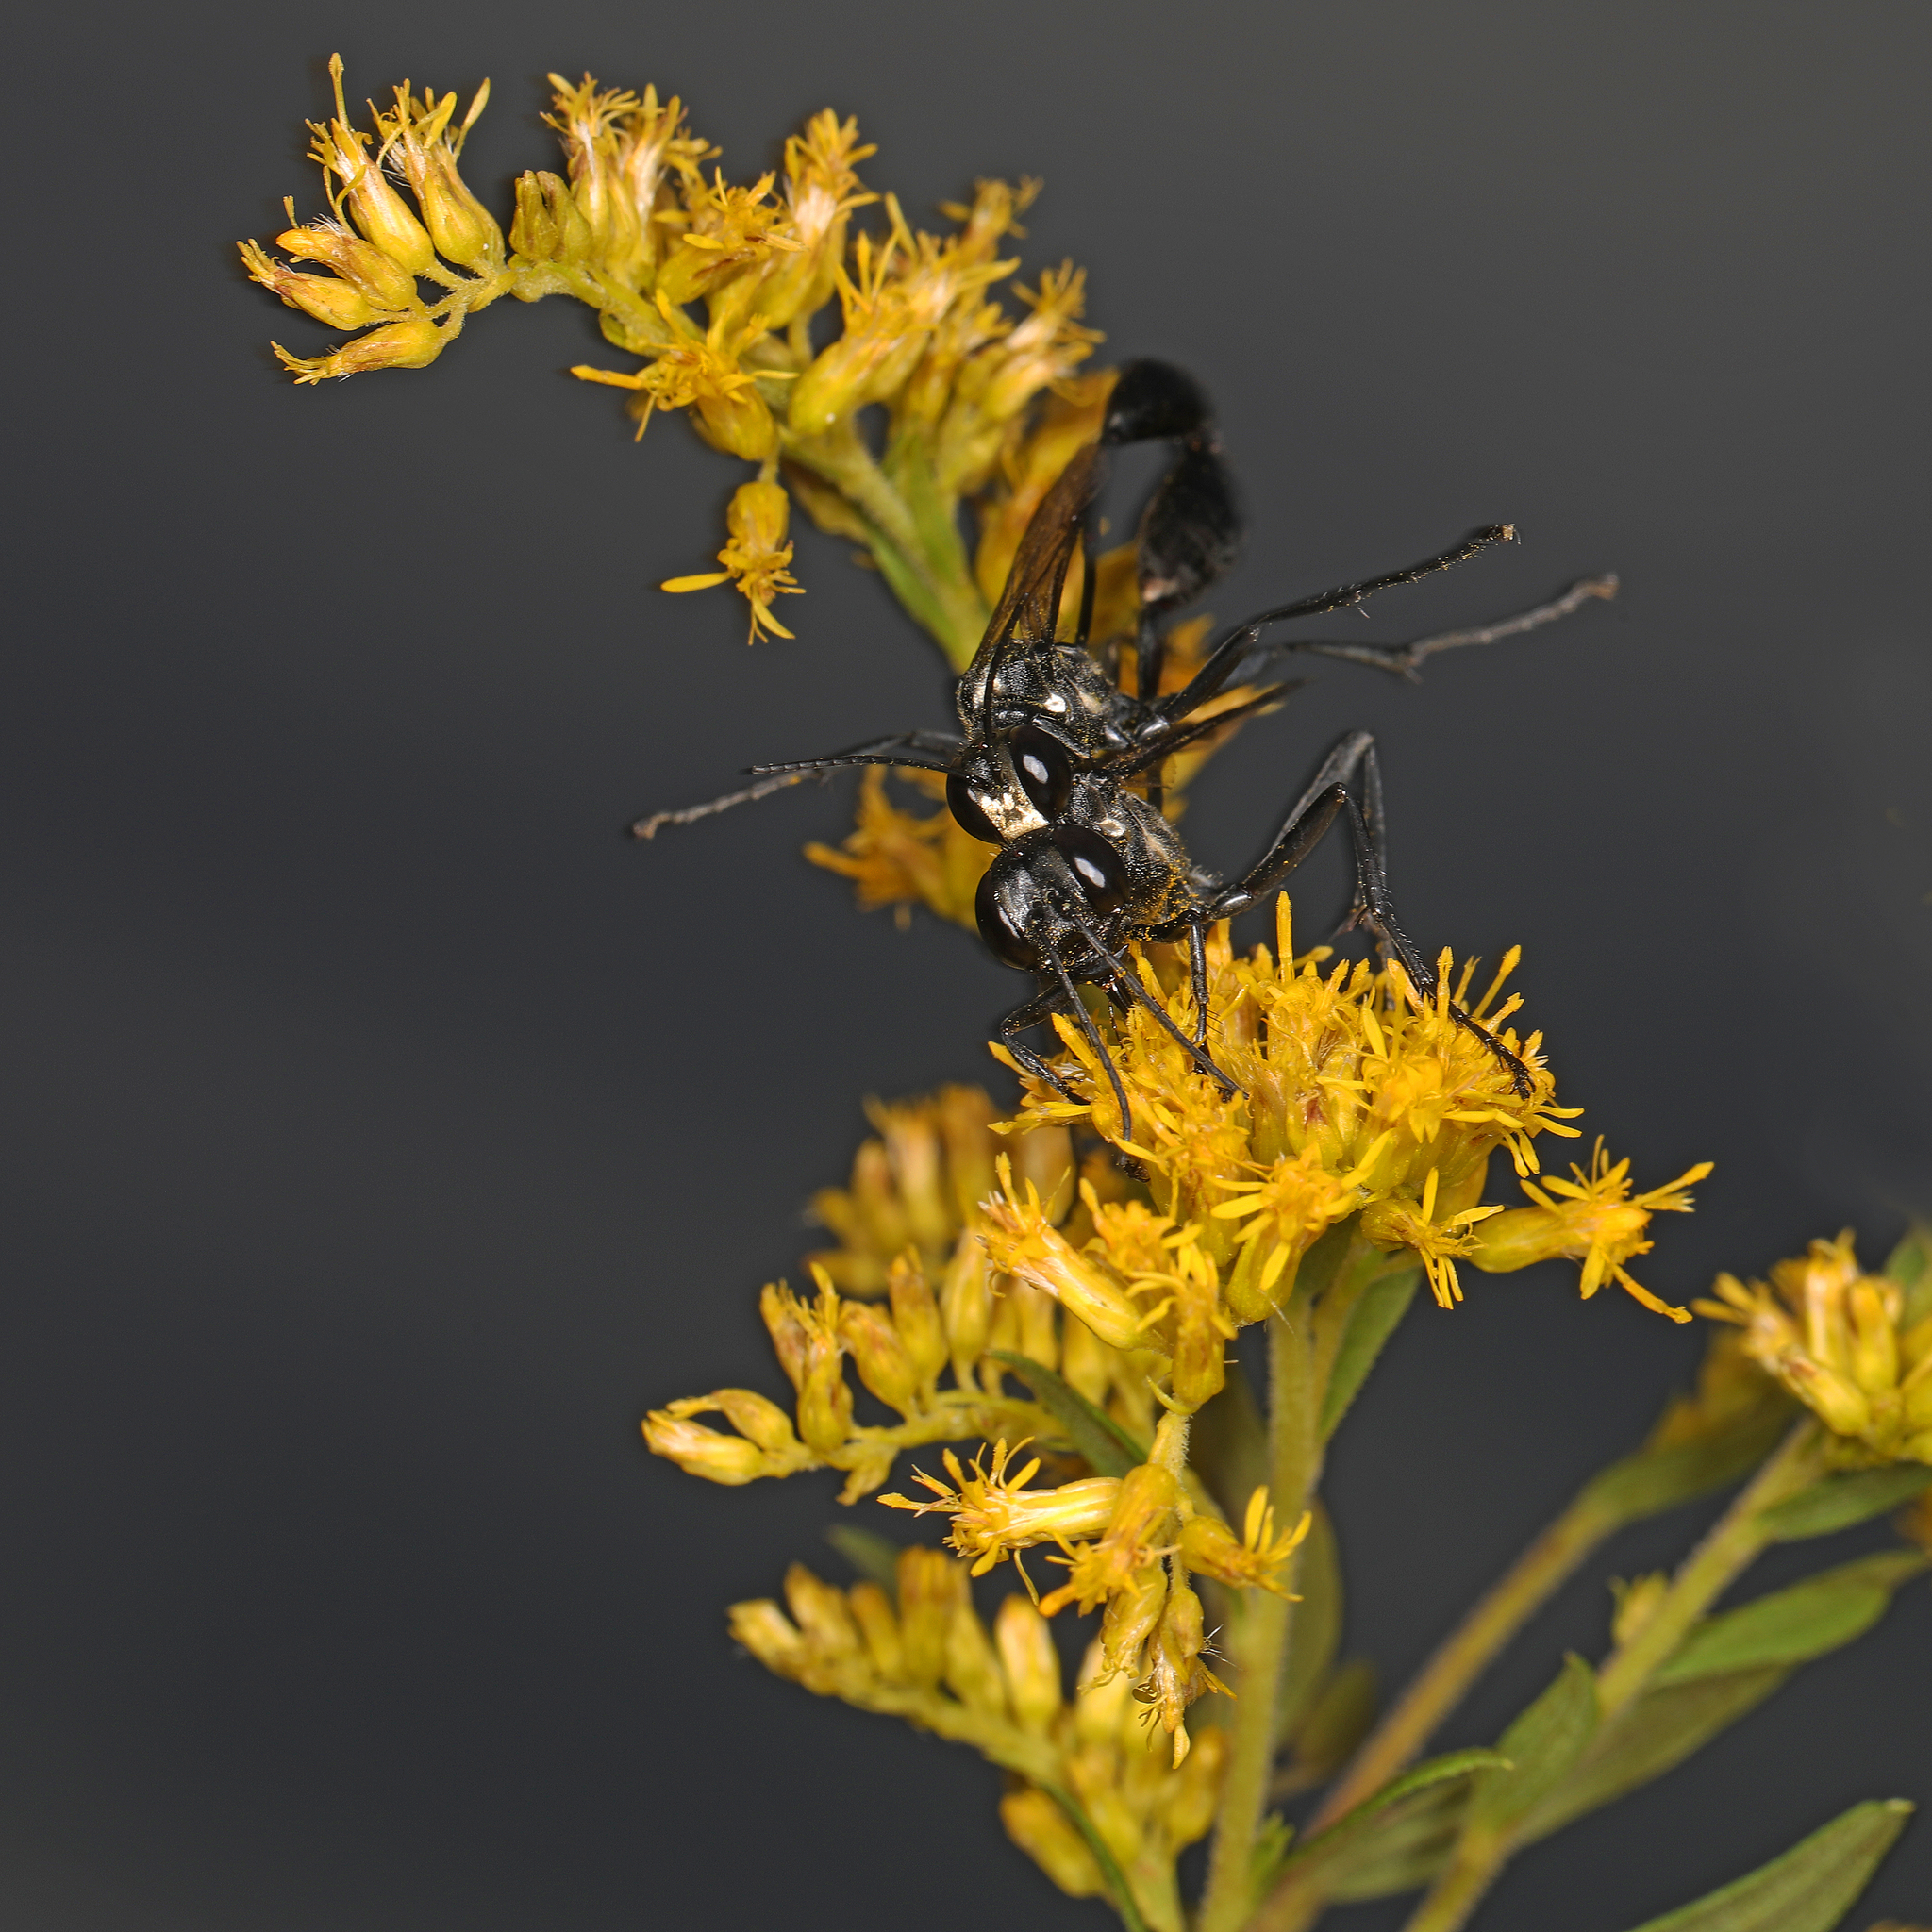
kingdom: Animalia
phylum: Arthropoda
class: Insecta
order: Hymenoptera
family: Sphecidae
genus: Eremnophila
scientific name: Eremnophila aureonotata
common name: Gold-marked thread-waisted wasp
